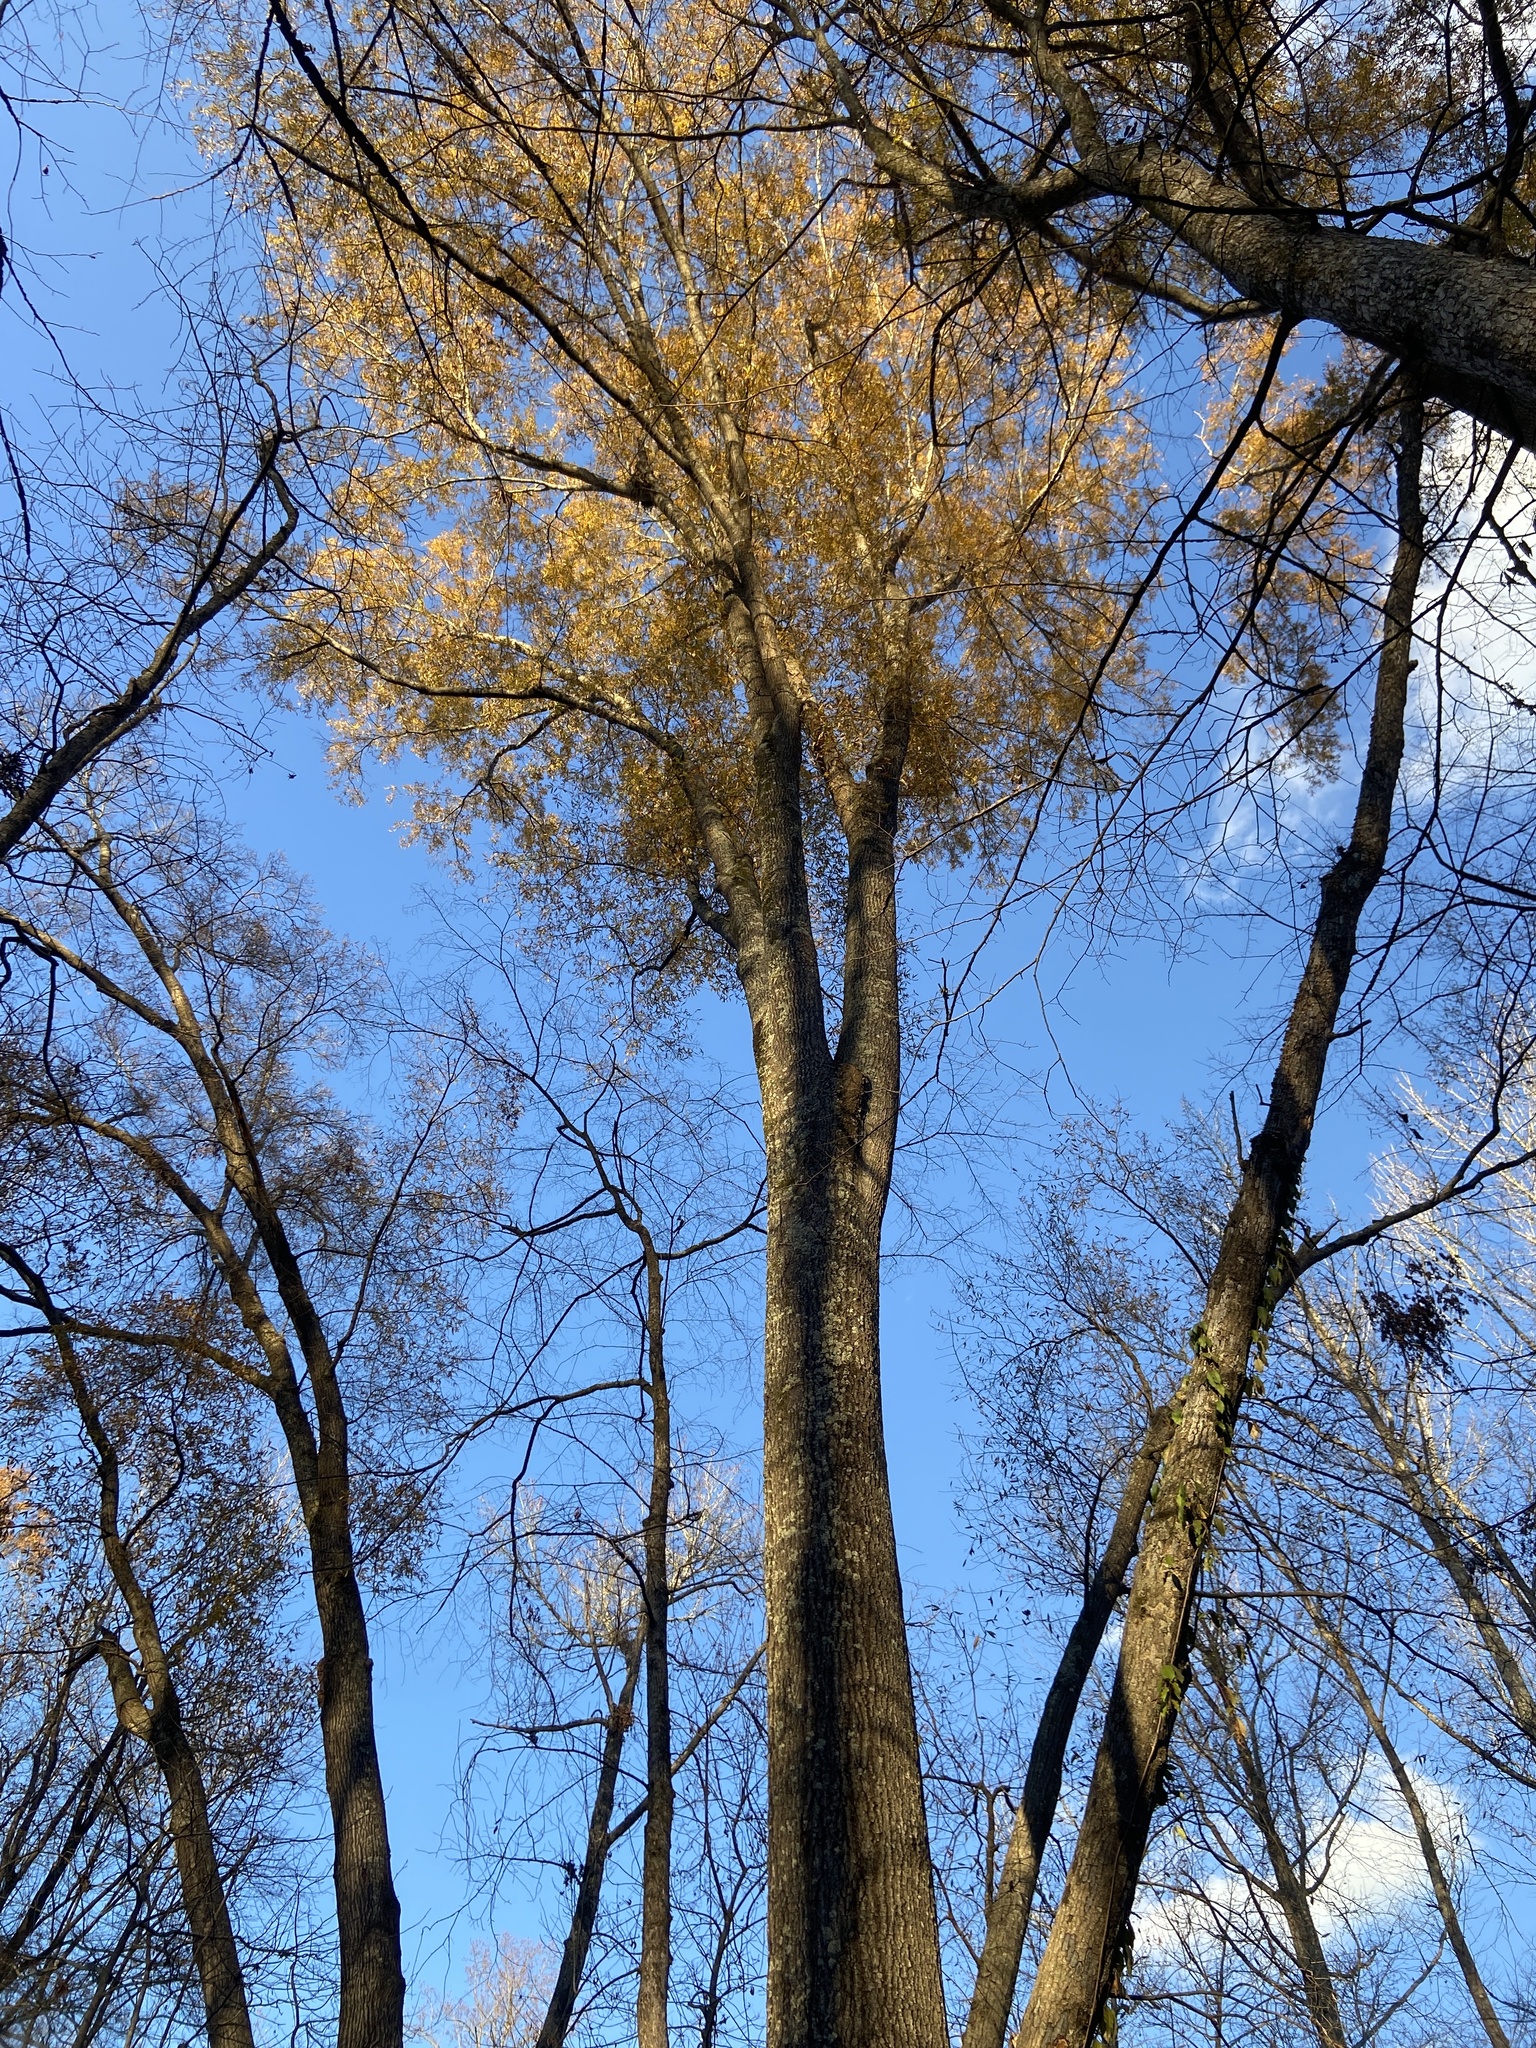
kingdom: Plantae
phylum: Tracheophyta
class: Magnoliopsida
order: Fagales
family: Fagaceae
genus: Quercus
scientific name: Quercus phellos
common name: Willow oak
